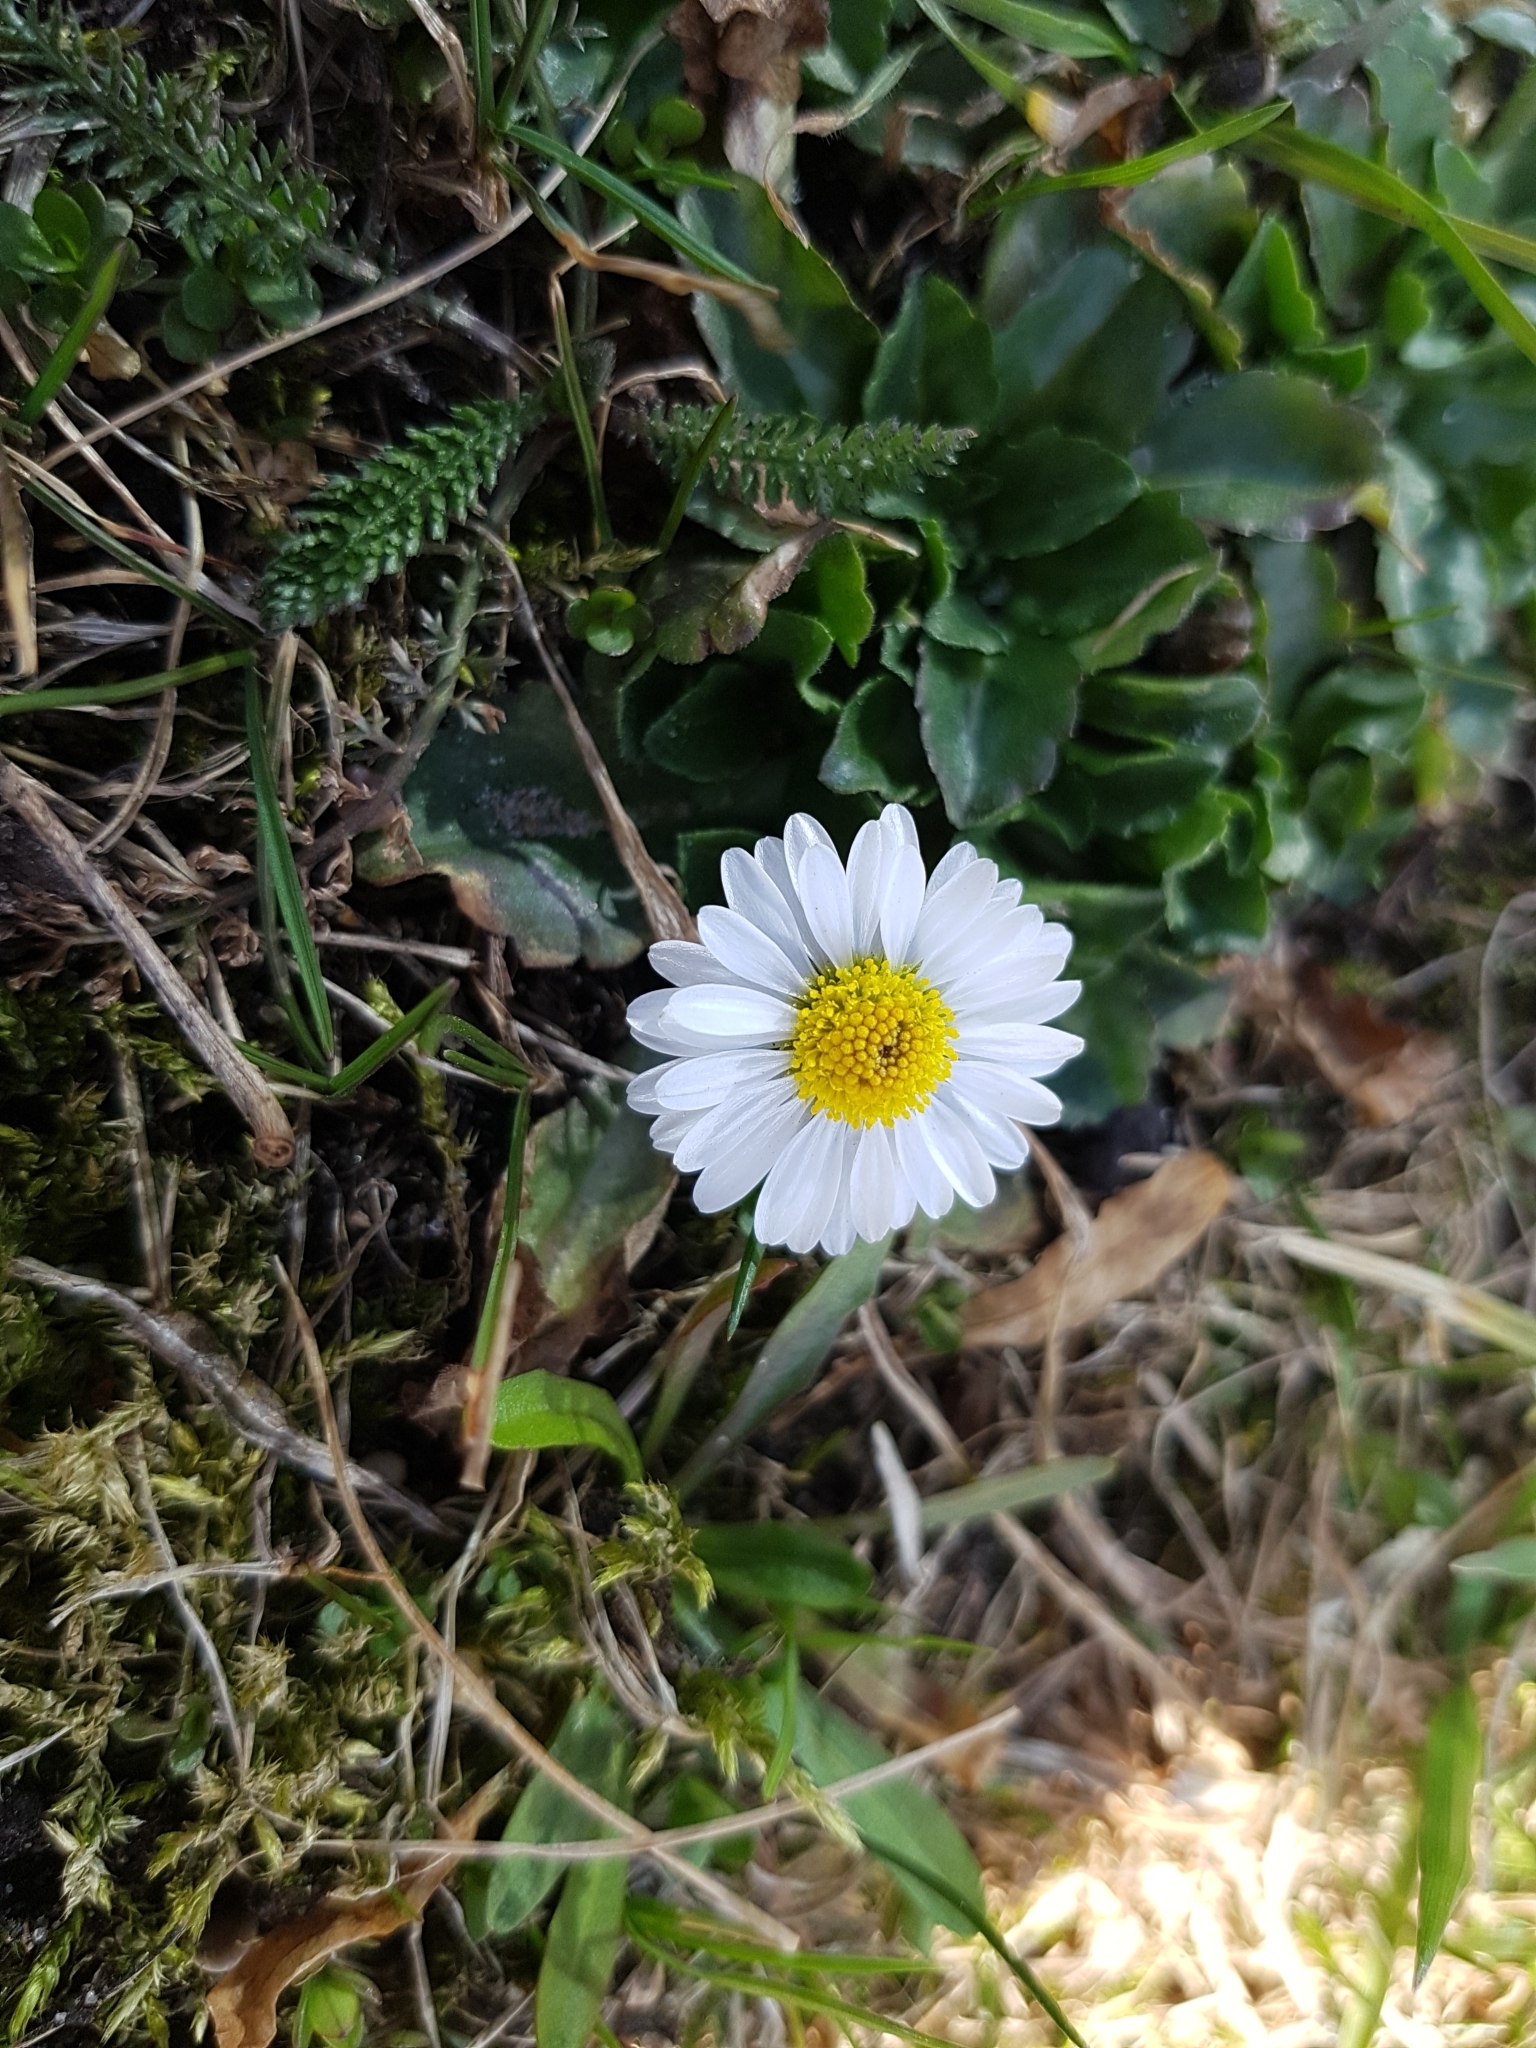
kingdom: Plantae
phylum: Tracheophyta
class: Magnoliopsida
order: Asterales
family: Asteraceae
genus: Bellis
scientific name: Bellis perennis
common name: Lawndaisy
